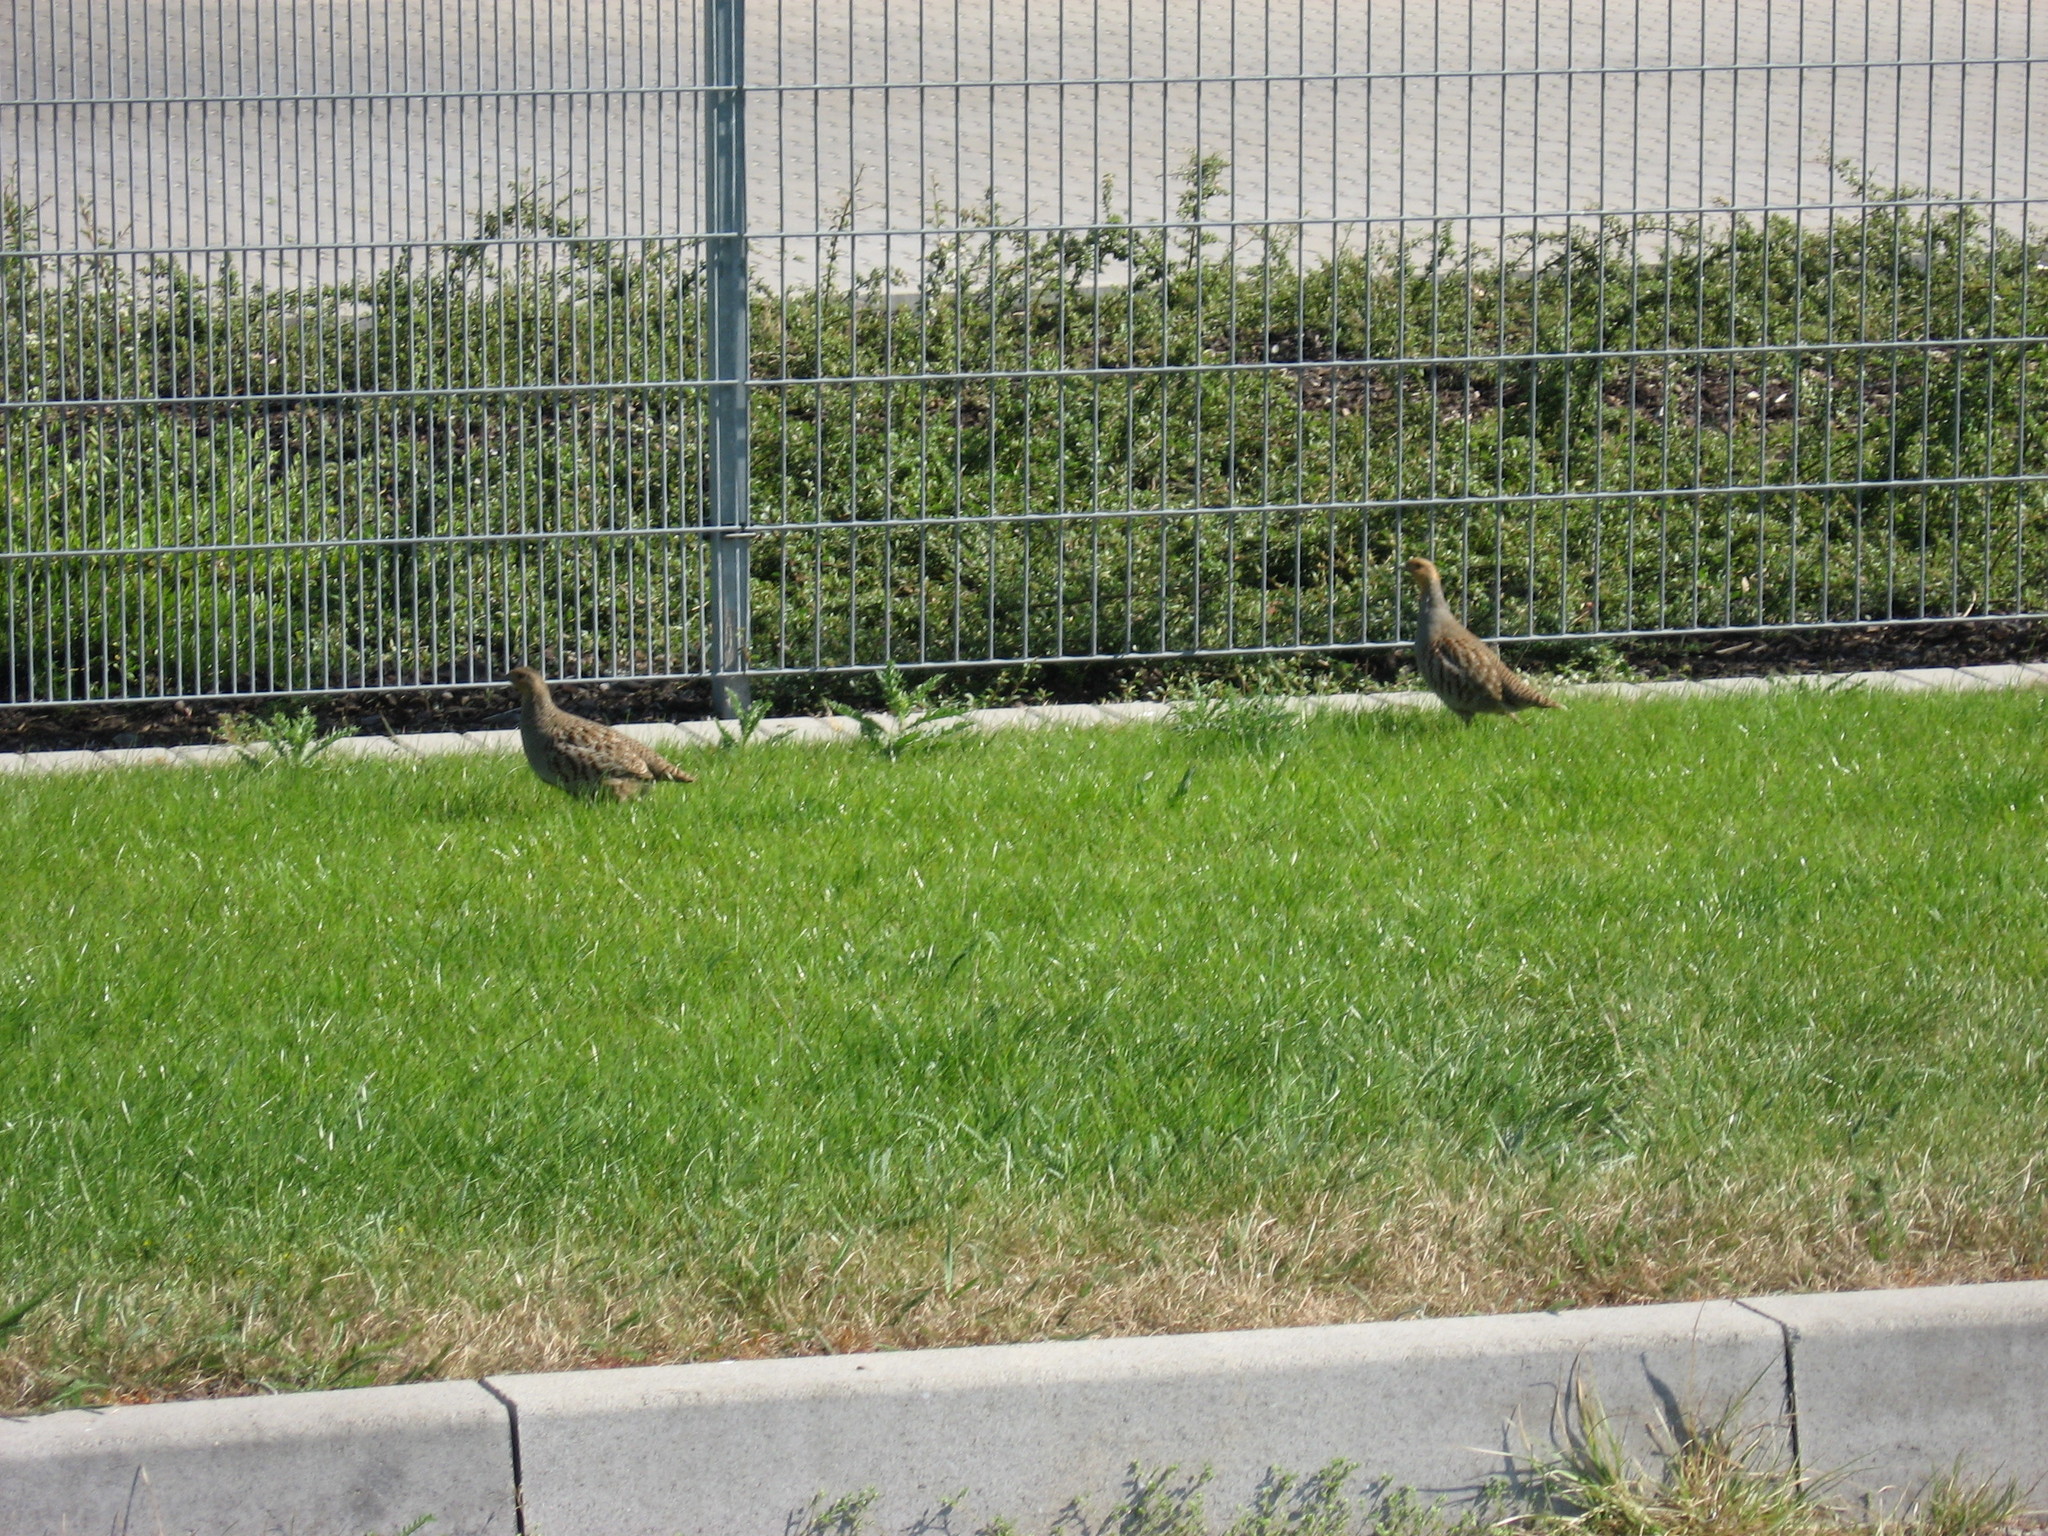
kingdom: Animalia
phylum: Chordata
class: Aves
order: Galliformes
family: Phasianidae
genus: Perdix
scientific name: Perdix perdix
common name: Grey partridge
